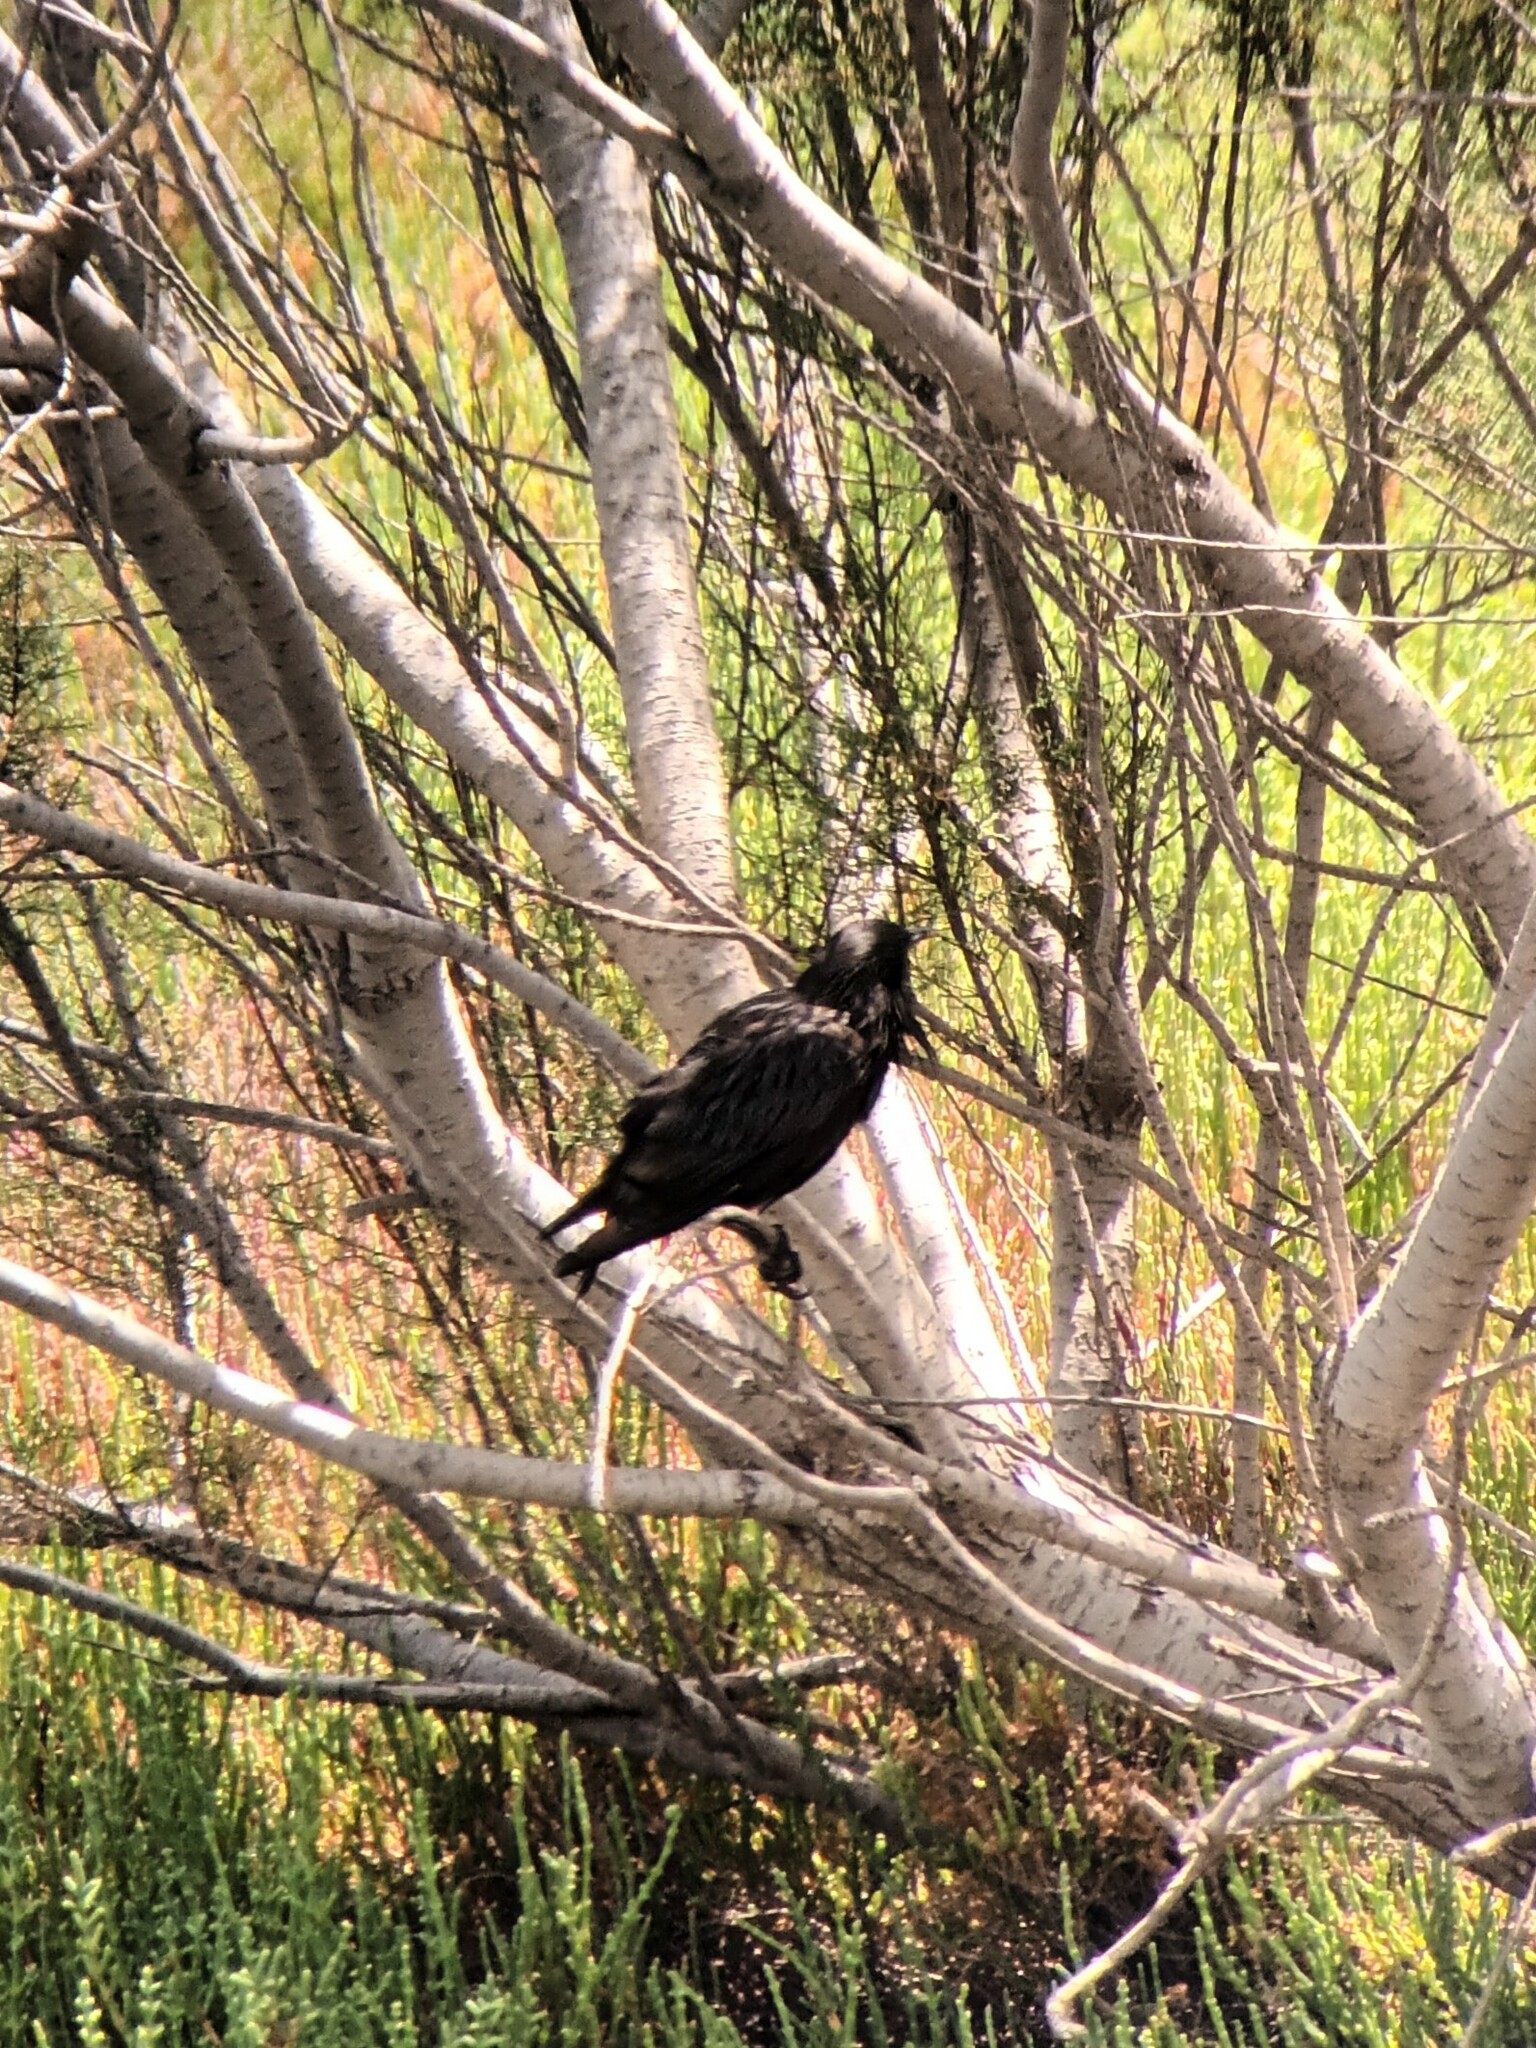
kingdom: Animalia
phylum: Chordata
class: Aves
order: Passeriformes
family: Sturnidae
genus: Sturnus
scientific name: Sturnus unicolor
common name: Spotless starling
